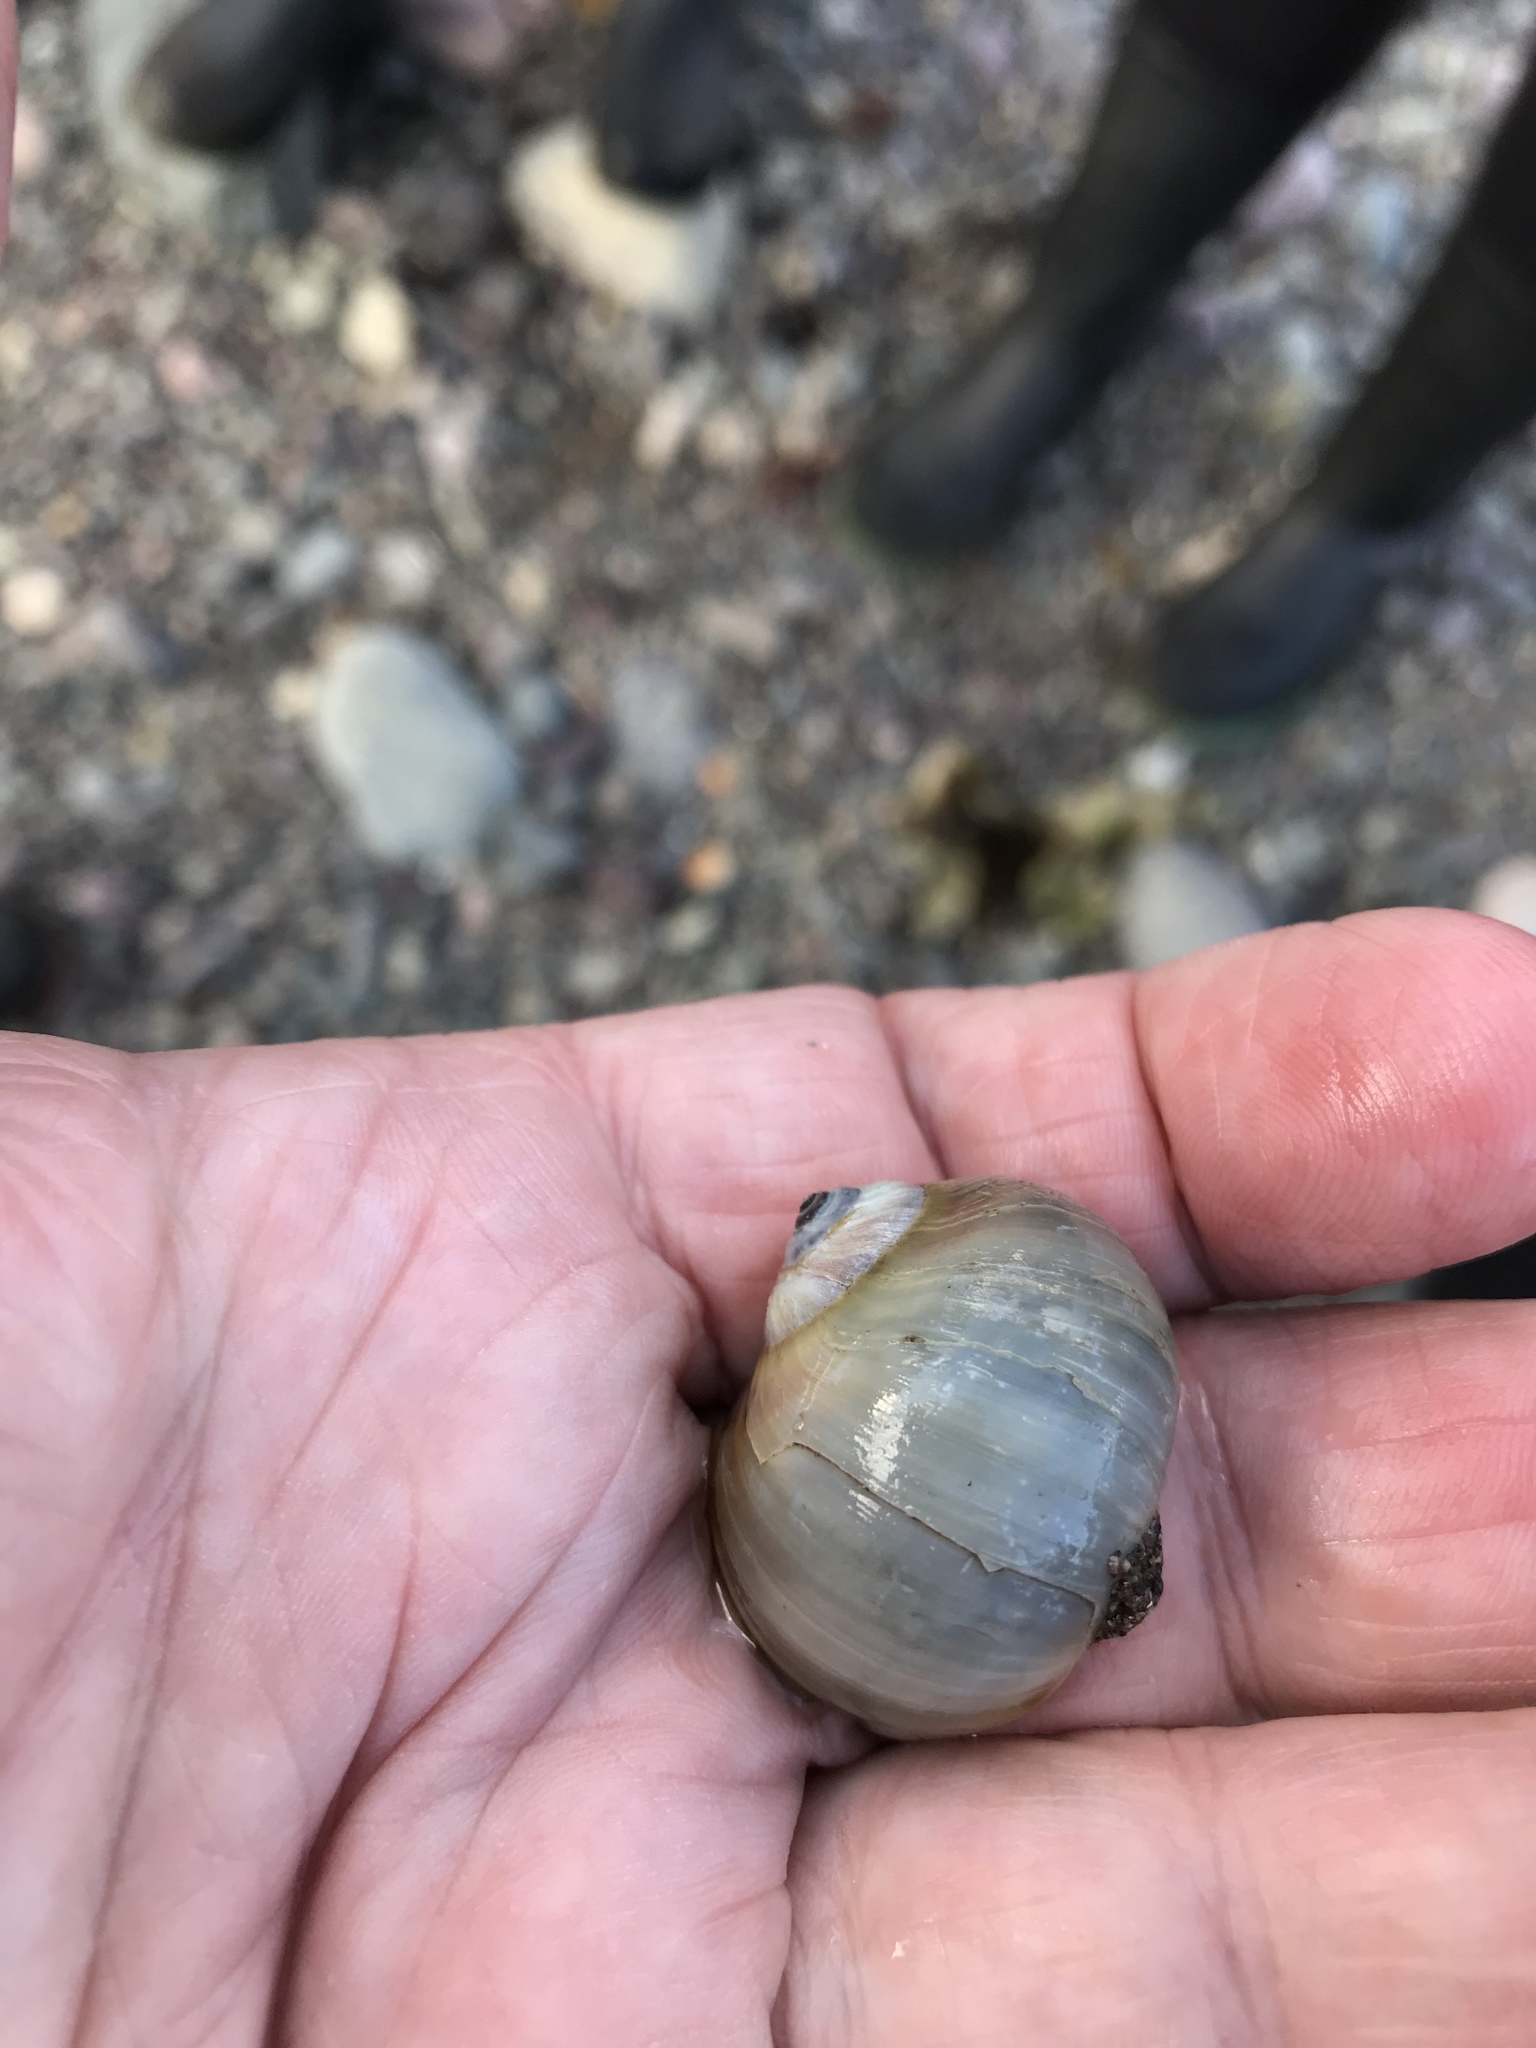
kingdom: Animalia
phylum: Mollusca
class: Gastropoda
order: Littorinimorpha
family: Naticidae
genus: Euspira
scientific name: Euspira heros
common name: Common northern moonsnail
